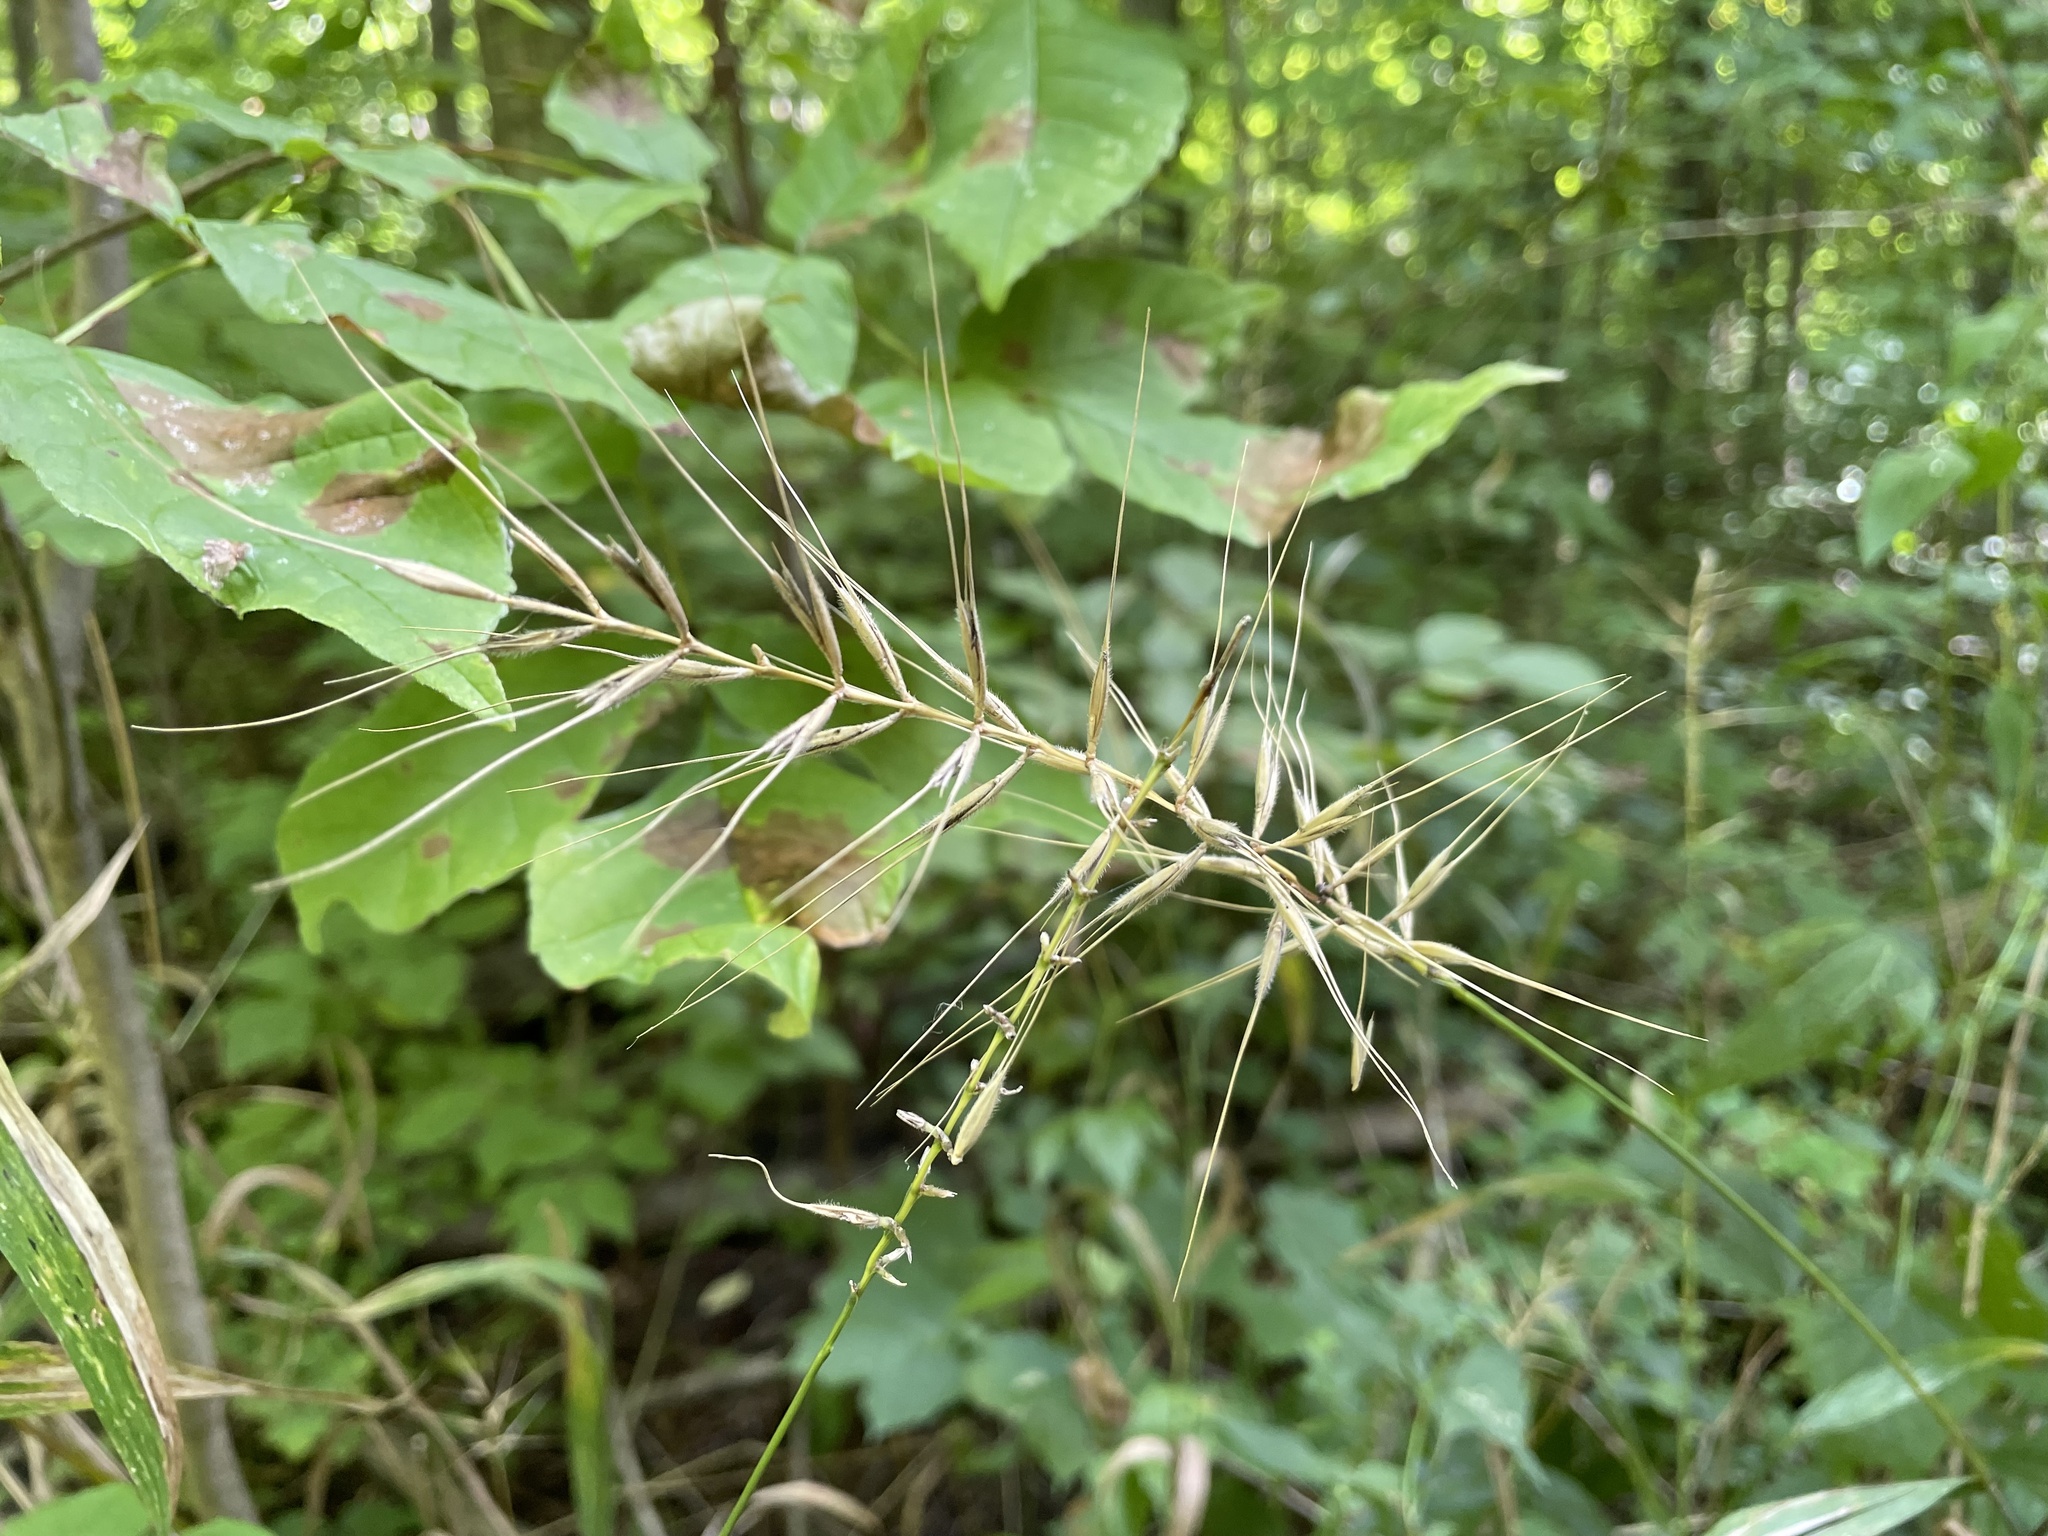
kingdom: Plantae
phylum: Tracheophyta
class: Liliopsida
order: Poales
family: Poaceae
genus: Elymus
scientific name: Elymus hystrix
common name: Bottlebrush grass
